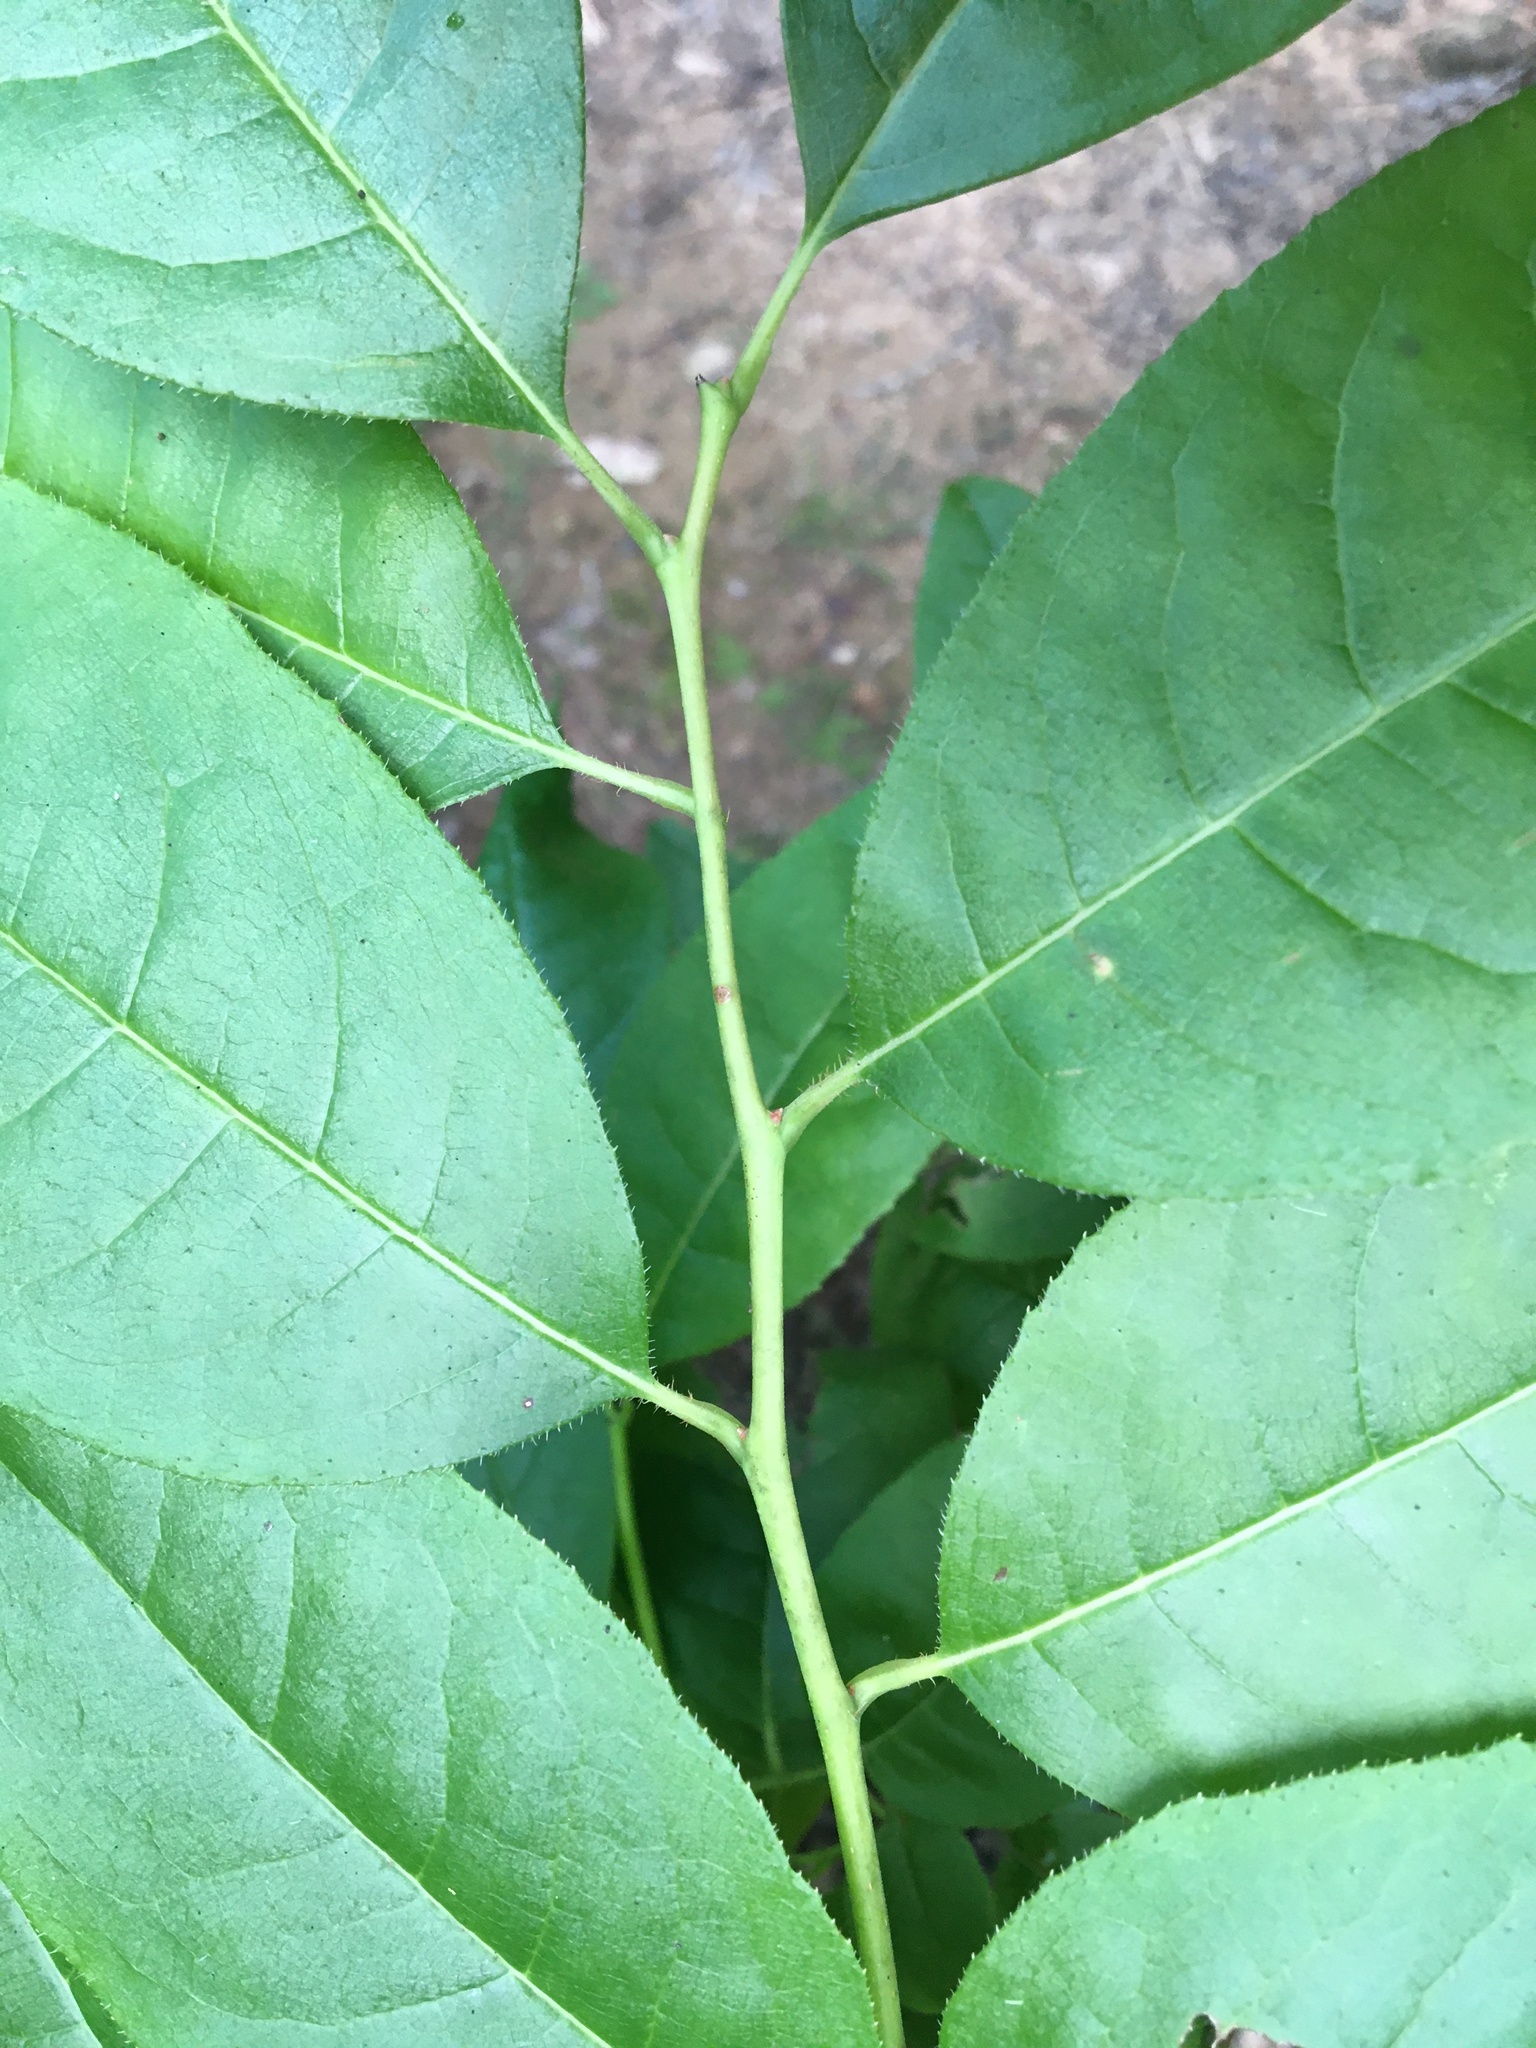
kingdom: Plantae
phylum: Tracheophyta
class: Magnoliopsida
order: Ericales
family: Ericaceae
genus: Oxydendrum
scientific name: Oxydendrum arboreum
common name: Sourwood
